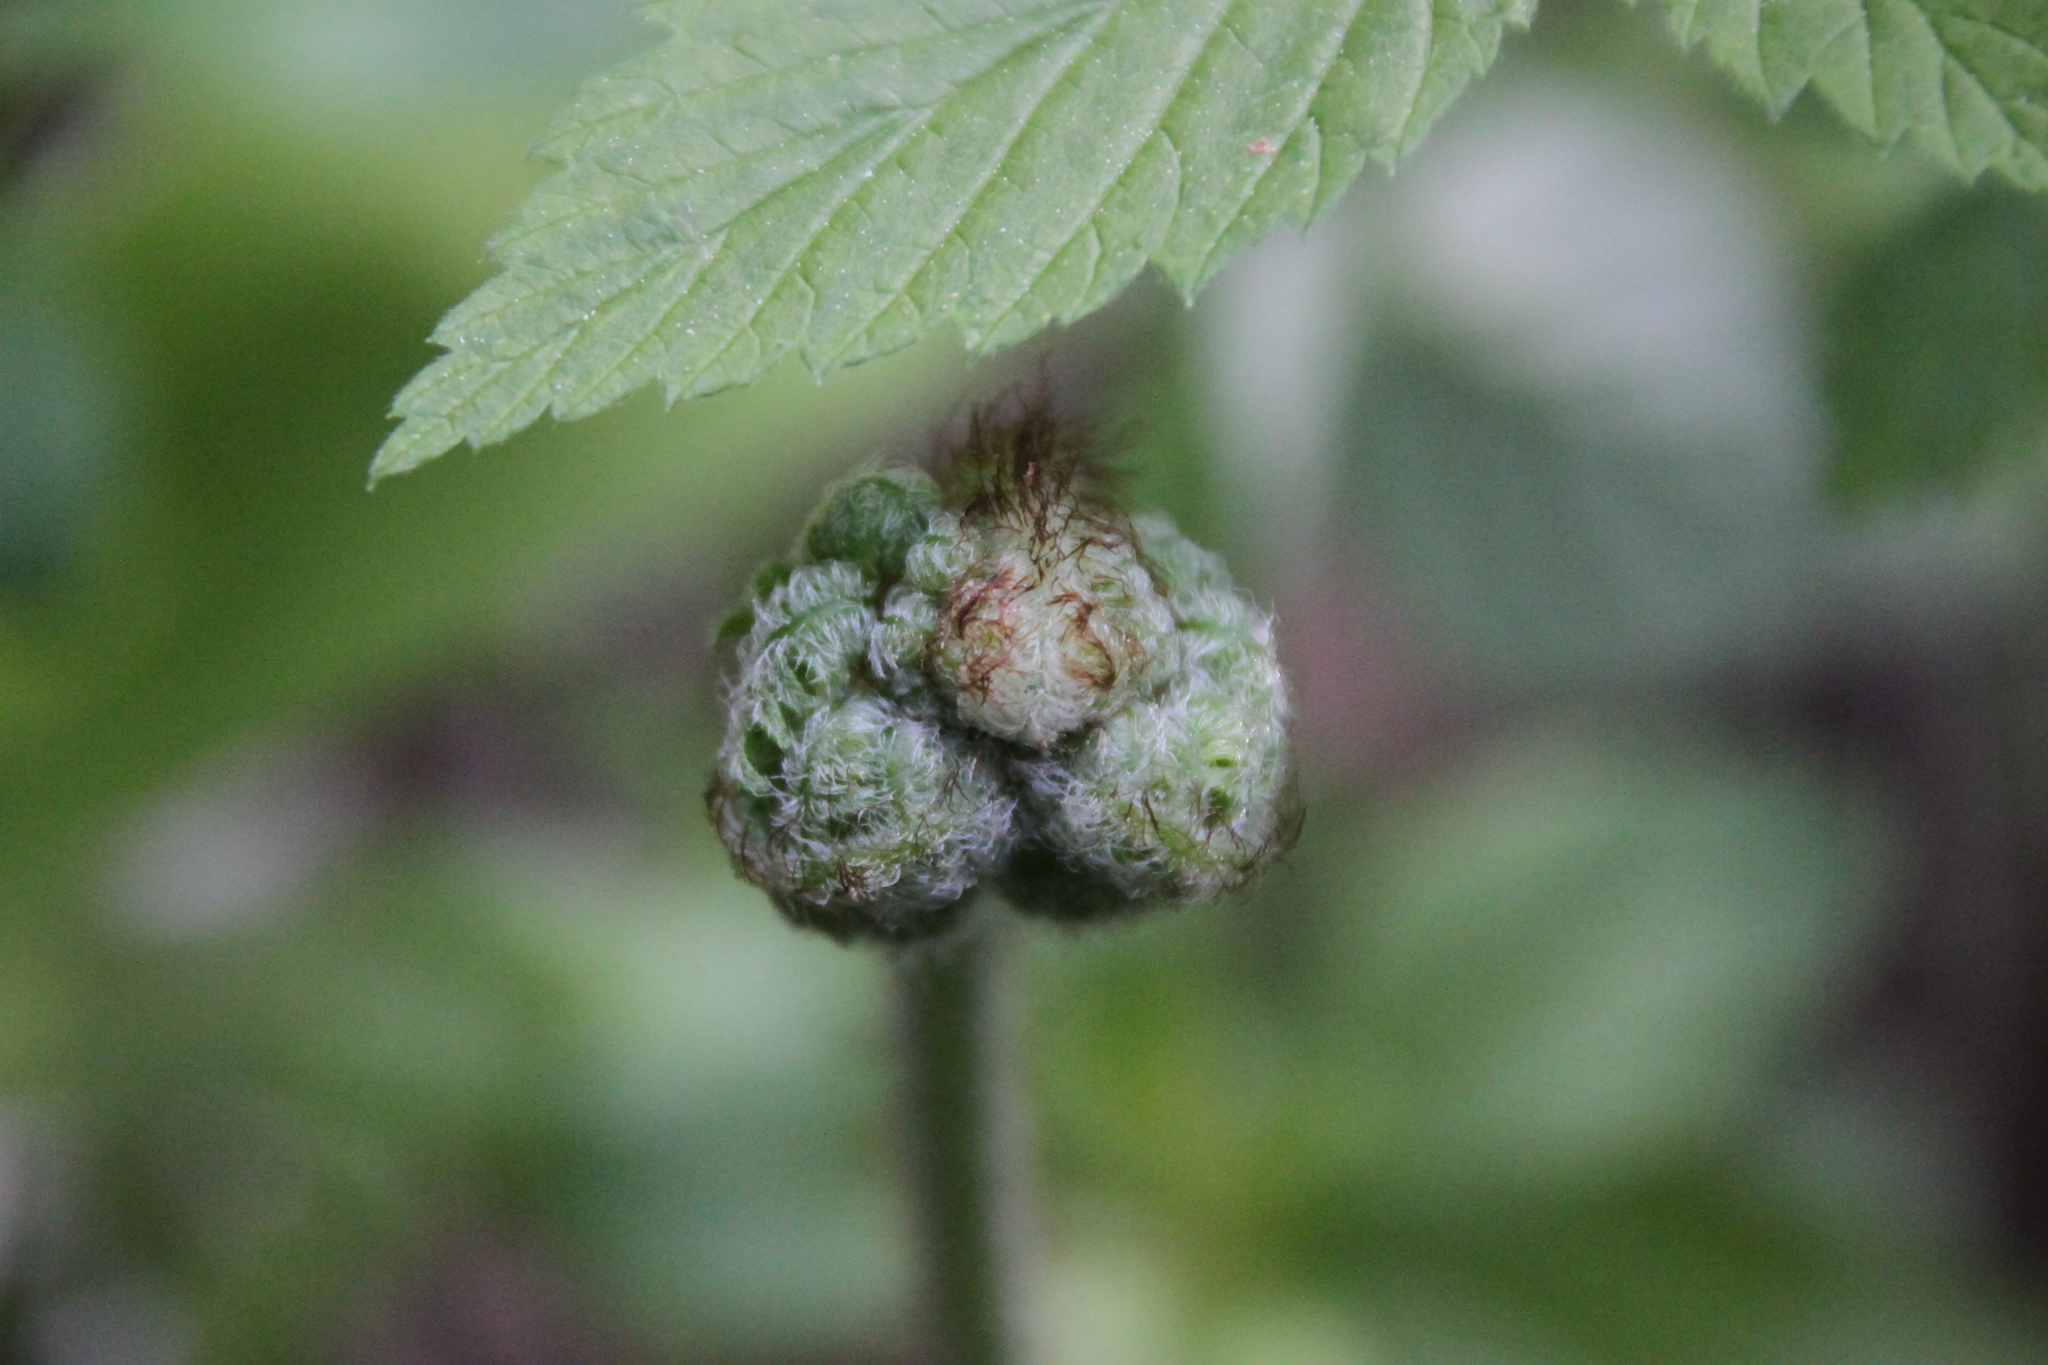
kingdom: Plantae
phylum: Tracheophyta
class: Polypodiopsida
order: Polypodiales
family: Dennstaedtiaceae
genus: Pteridium
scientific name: Pteridium aquilinum
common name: Bracken
